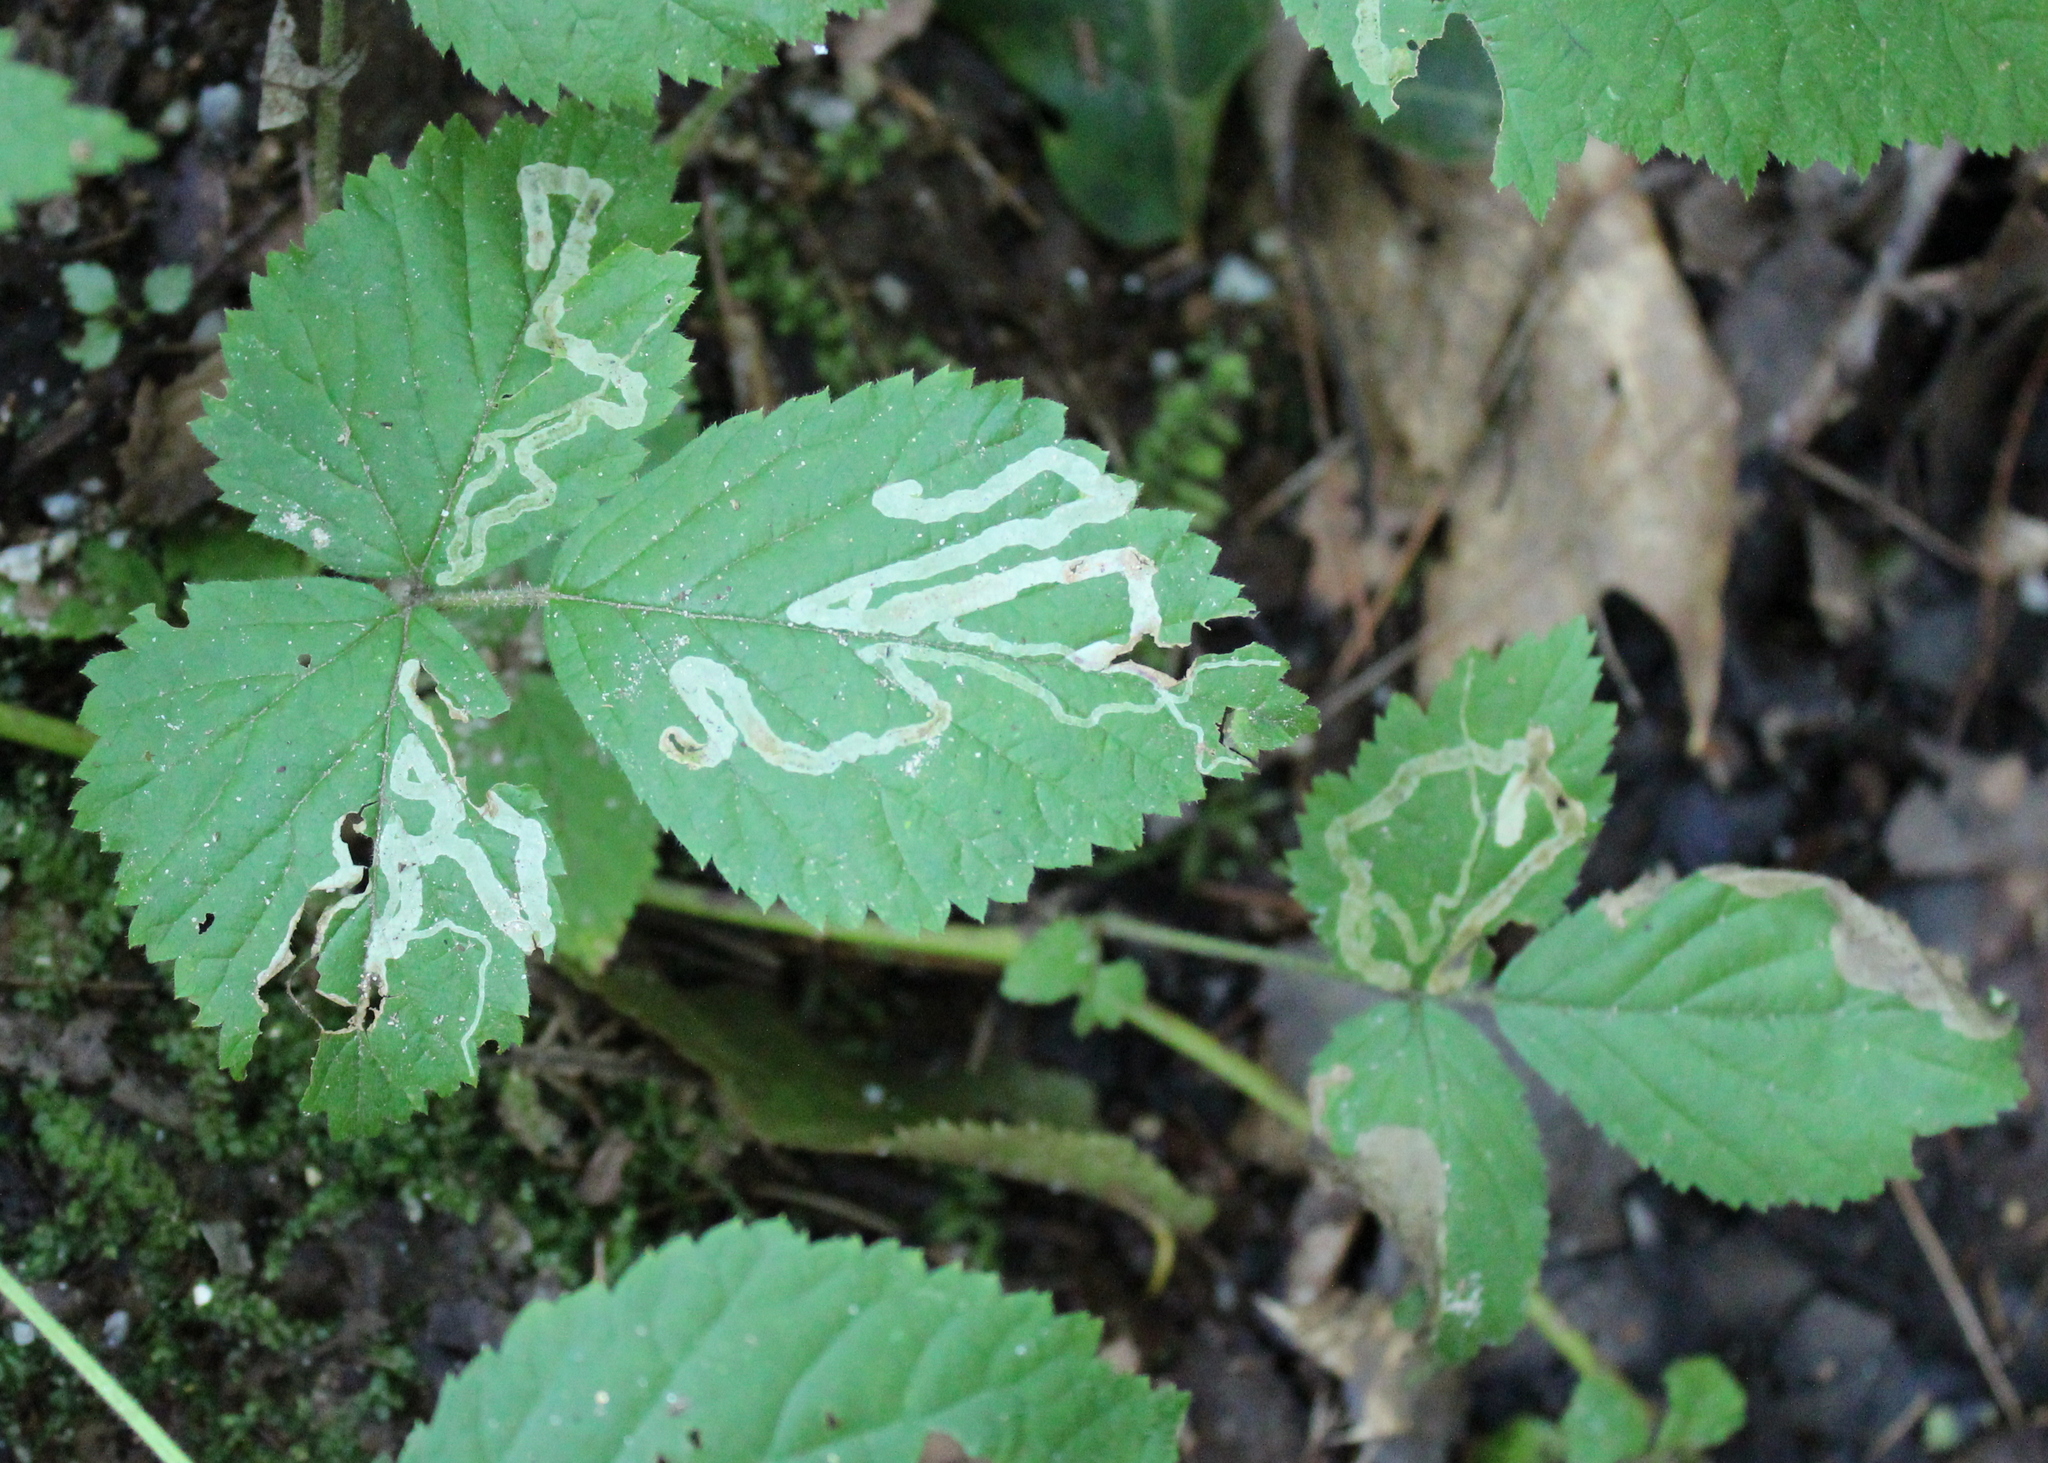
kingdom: Animalia
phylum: Arthropoda
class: Insecta
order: Diptera
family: Agromyzidae
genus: Agromyza
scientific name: Agromyza vockerothi
